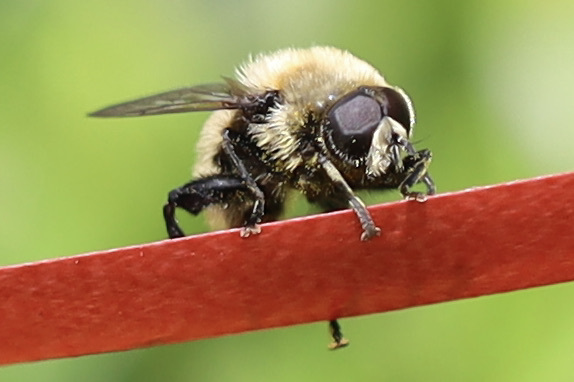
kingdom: Animalia
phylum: Arthropoda
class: Insecta
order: Diptera
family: Syrphidae
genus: Merodon
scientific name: Merodon equestris
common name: Greater bulb-fly
